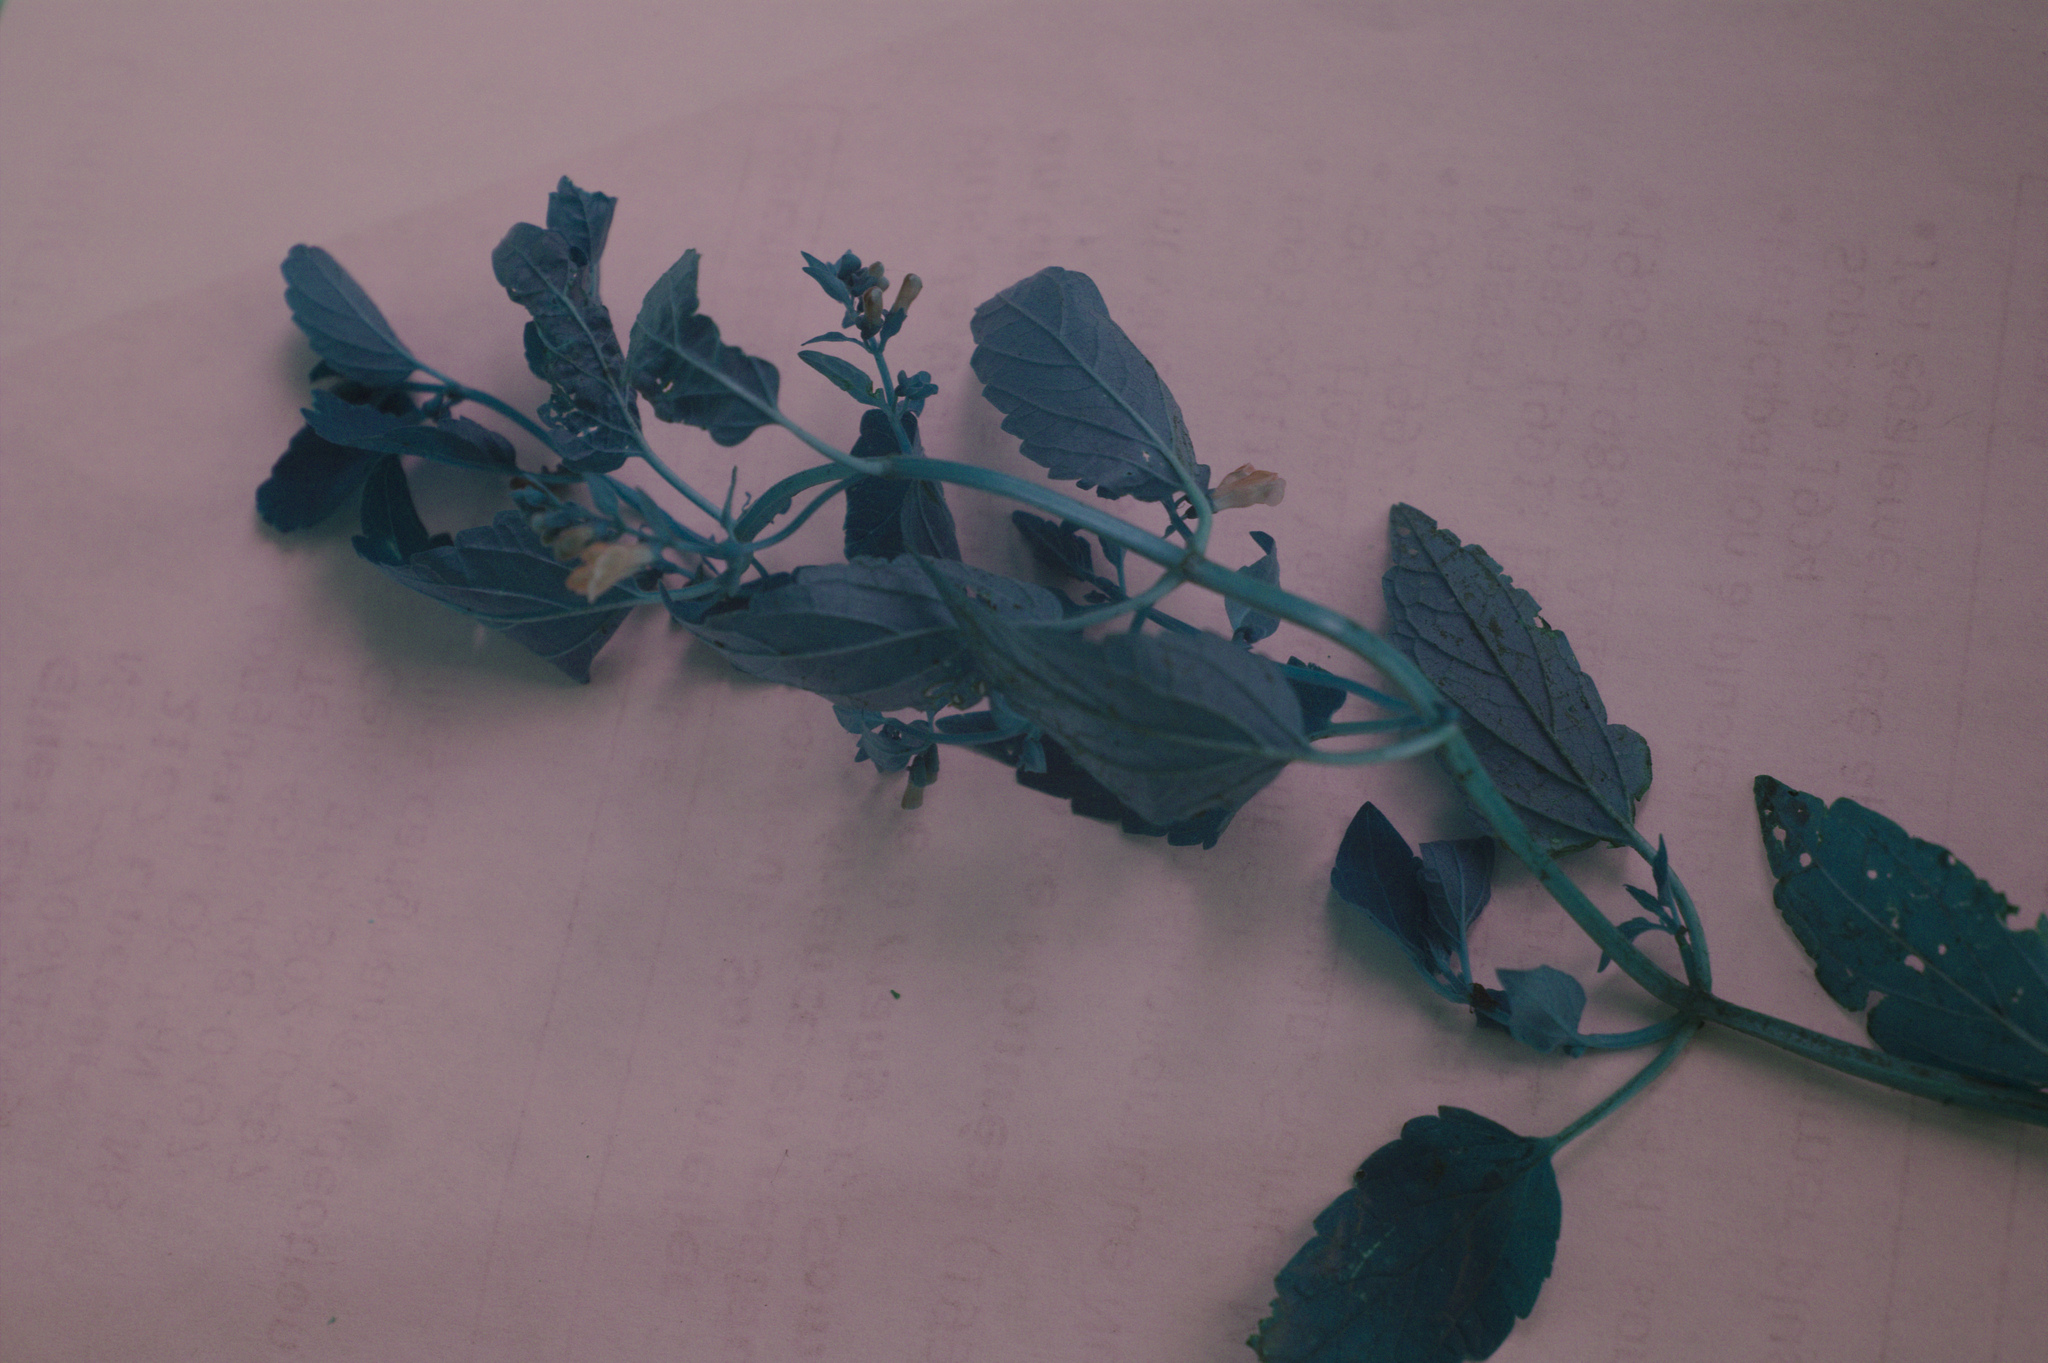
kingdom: Plantae
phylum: Tracheophyta
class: Magnoliopsida
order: Lamiales
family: Lamiaceae
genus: Scutellaria
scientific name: Scutellaria lateriflora
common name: Blue skullcap
